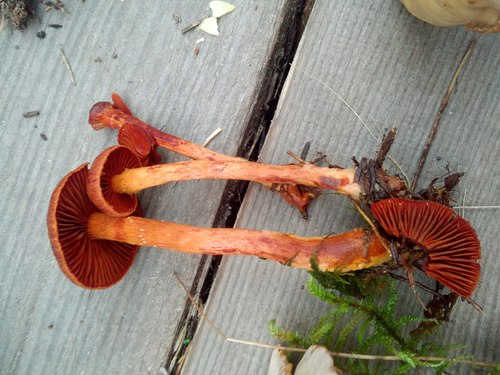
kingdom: Fungi
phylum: Basidiomycota
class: Agaricomycetes
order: Agaricales
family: Cortinariaceae
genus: Cortinarius
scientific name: Cortinarius semisanguineus
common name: Surprise webcap
